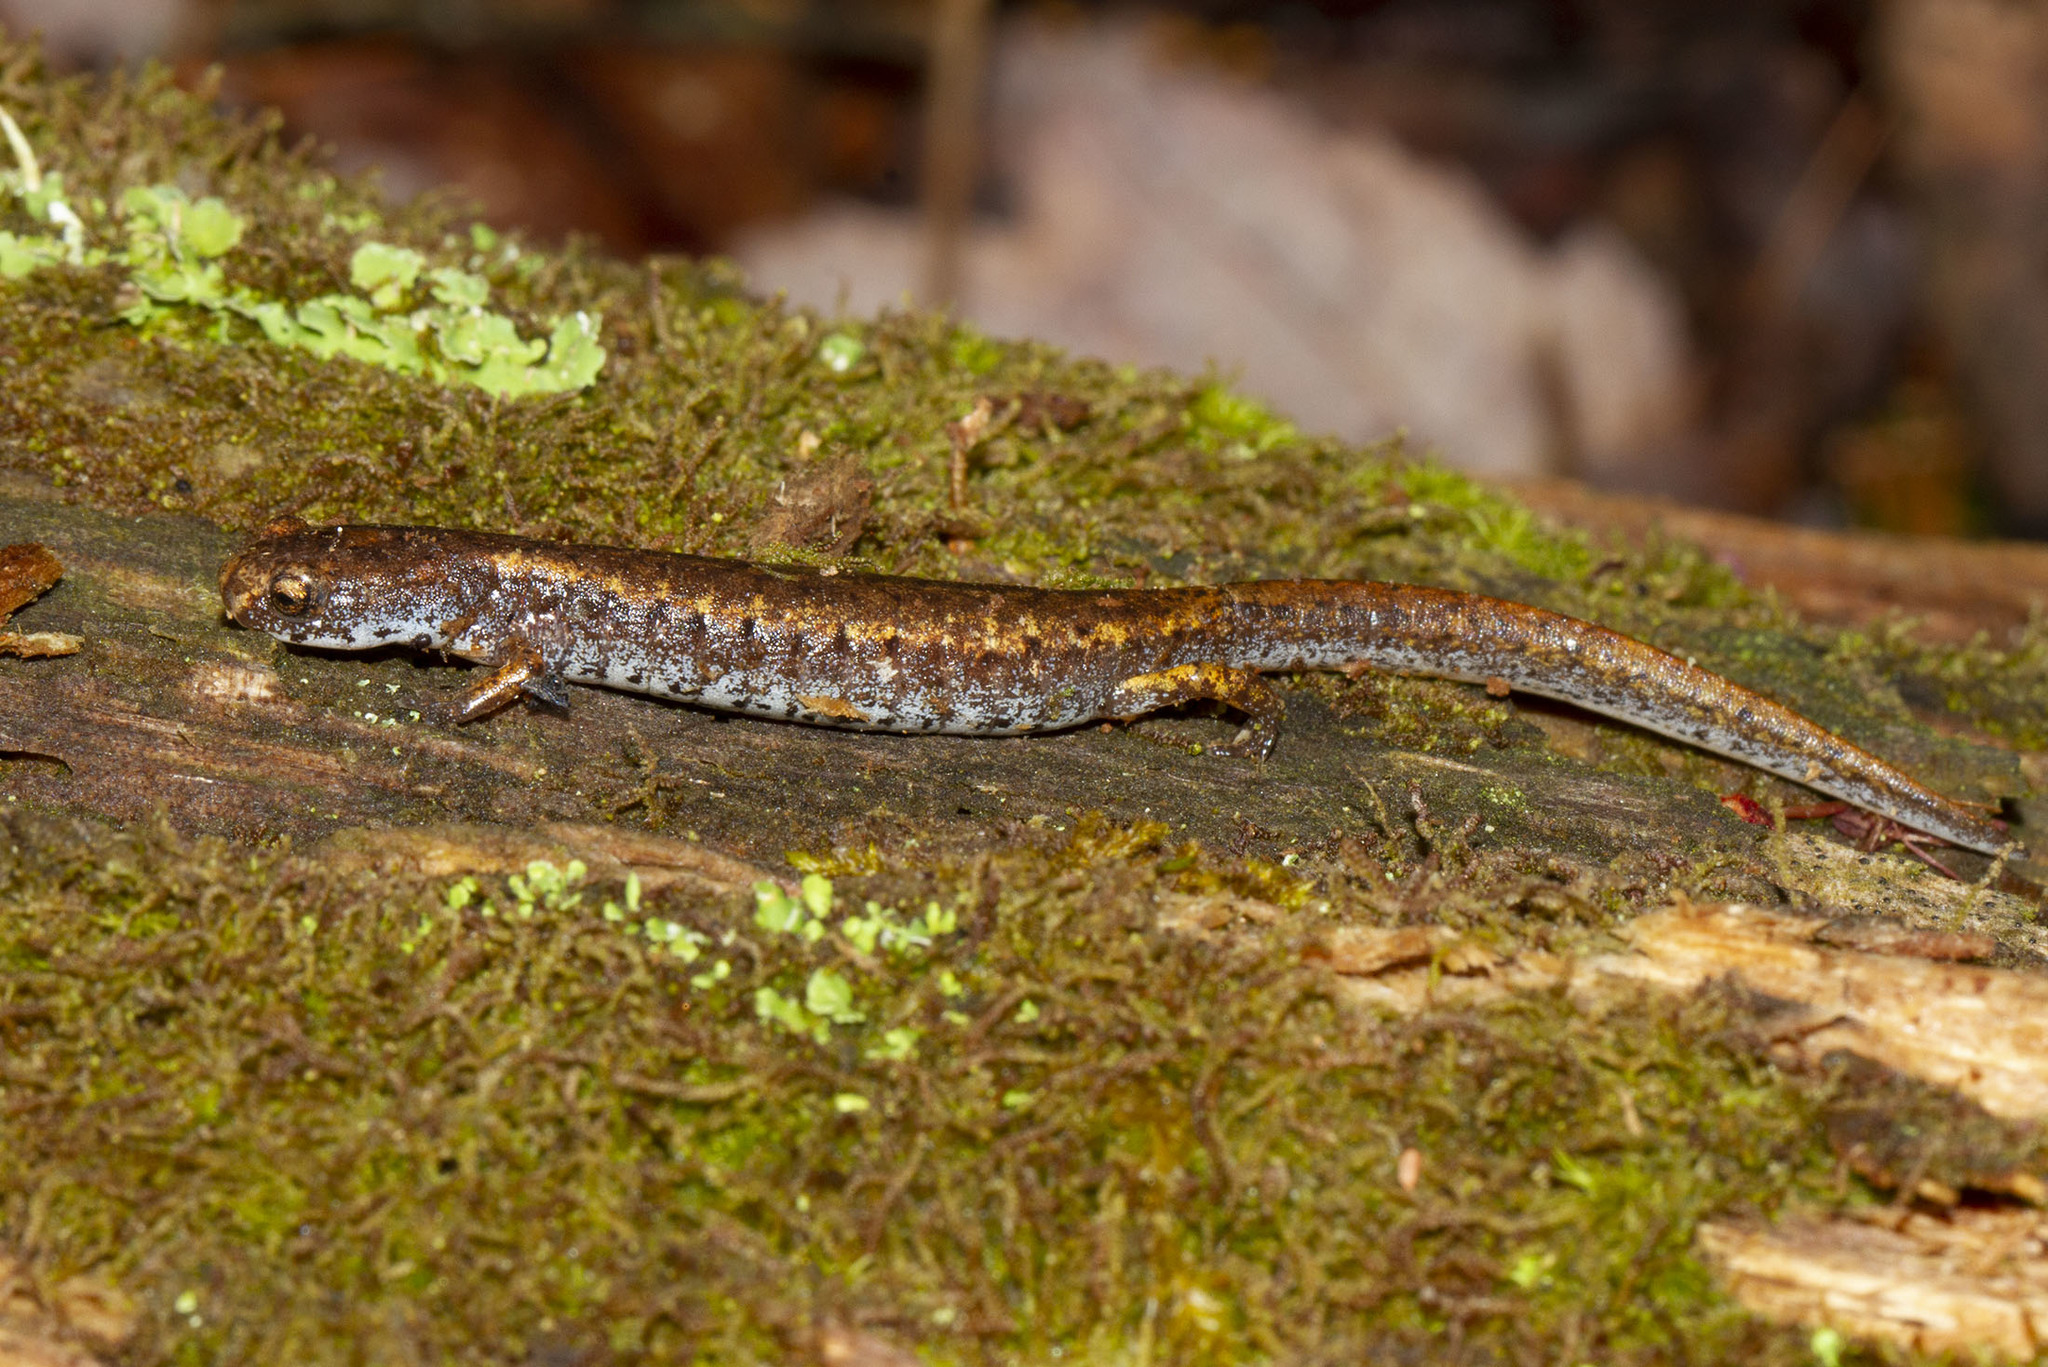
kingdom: Animalia
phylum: Chordata
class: Amphibia
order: Caudata
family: Plethodontidae
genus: Hemidactylium
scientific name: Hemidactylium scutatum
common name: Four-toed salamander
